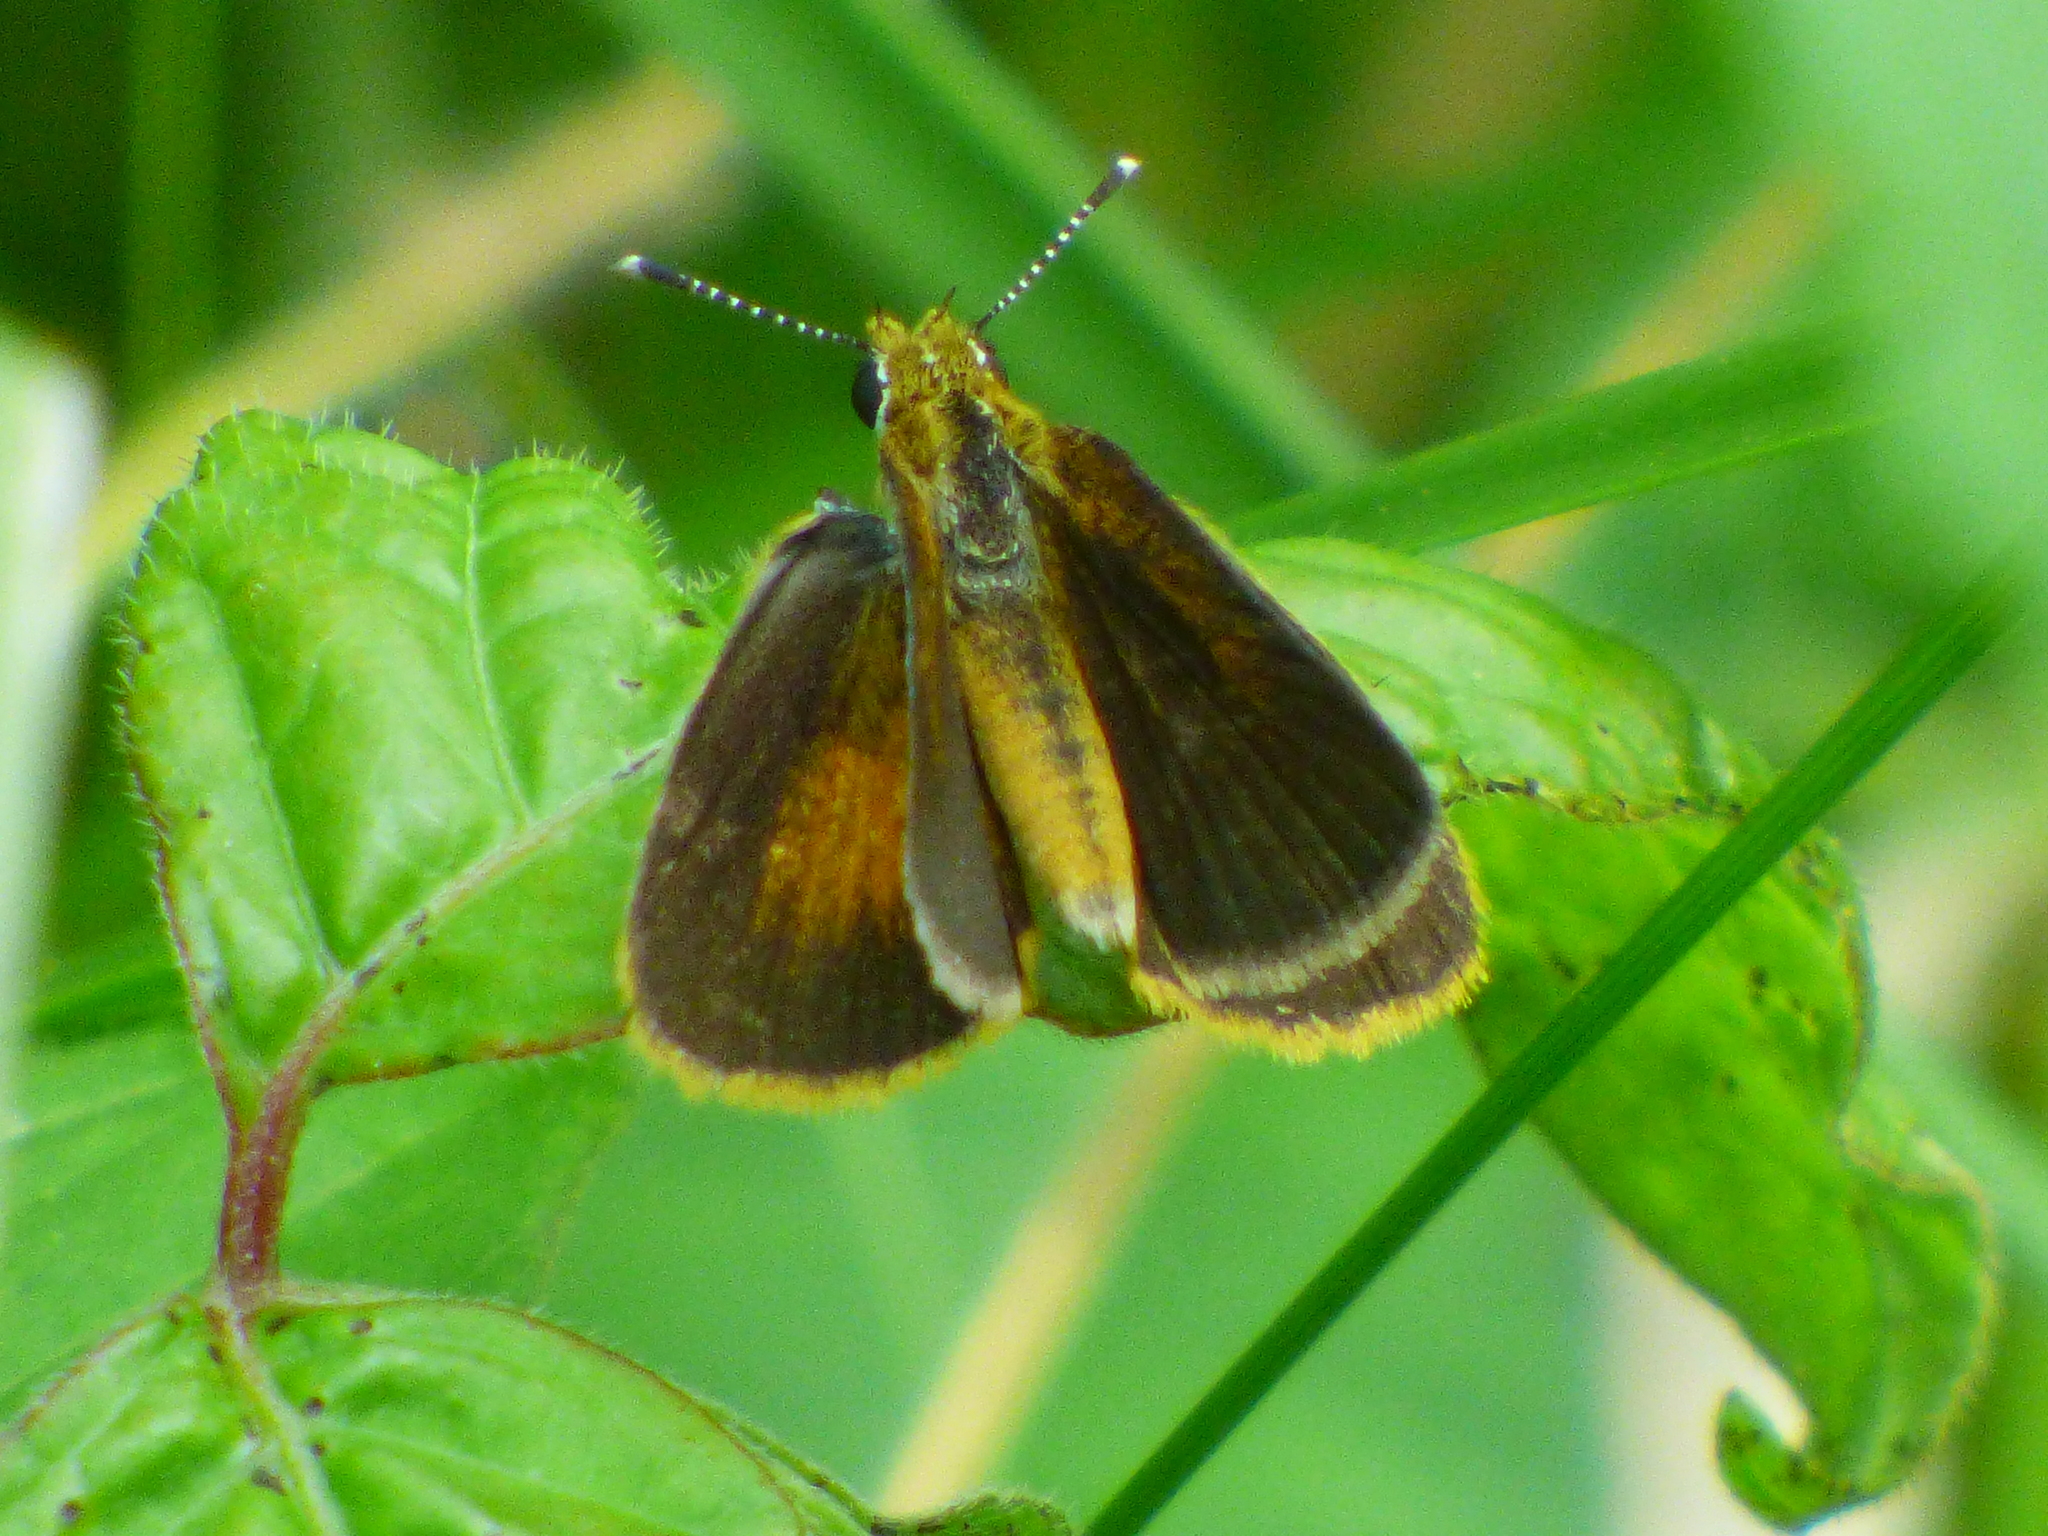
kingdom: Animalia
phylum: Arthropoda
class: Insecta
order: Lepidoptera
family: Hesperiidae
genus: Ancyloxypha
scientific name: Ancyloxypha numitor
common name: Least skipper
